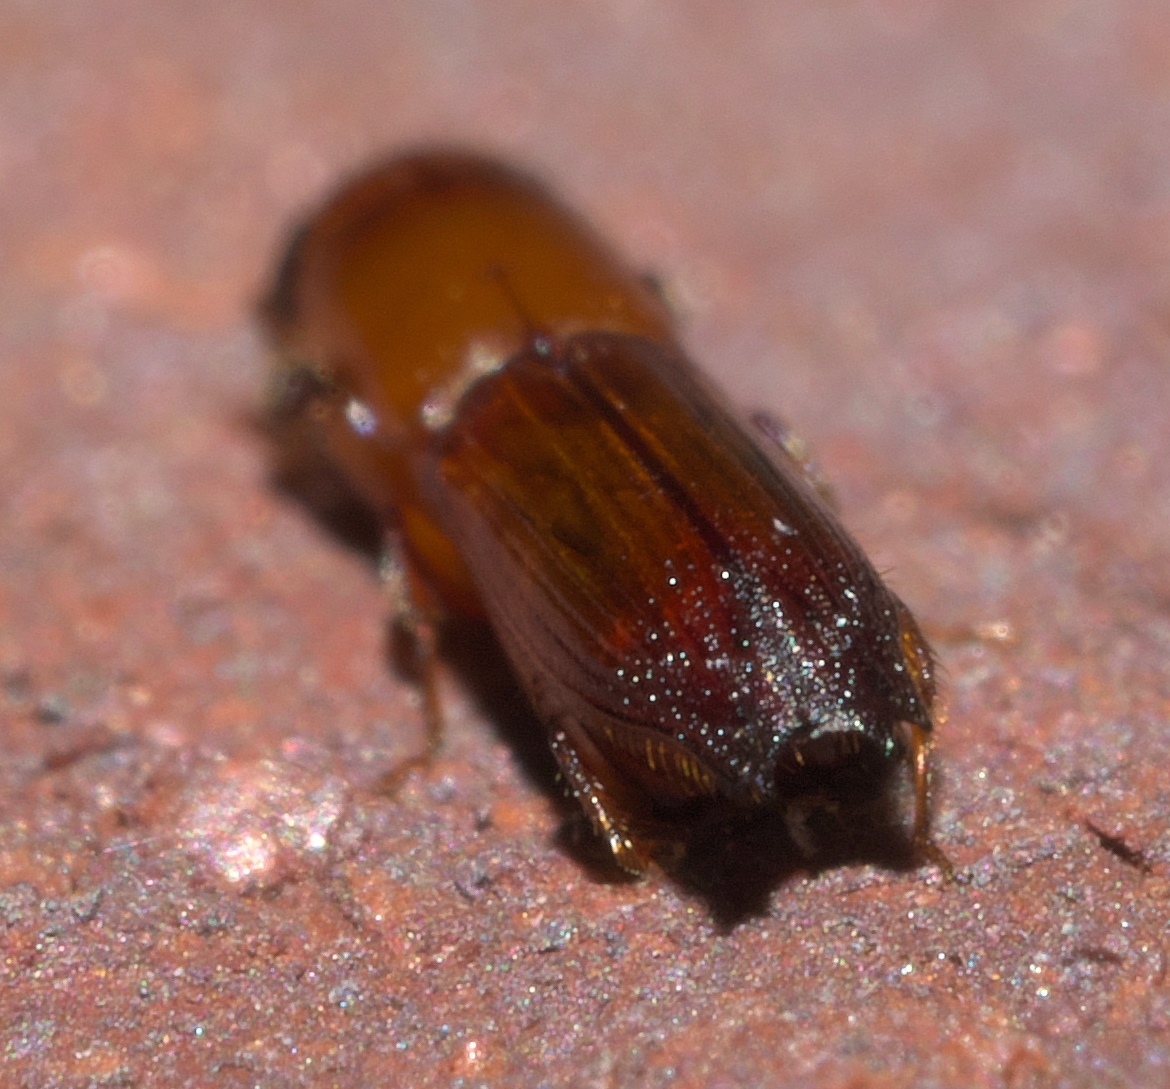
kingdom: Animalia
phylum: Arthropoda
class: Insecta
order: Coleoptera
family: Curculionidae
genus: Euplatypus
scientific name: Euplatypus compositus
